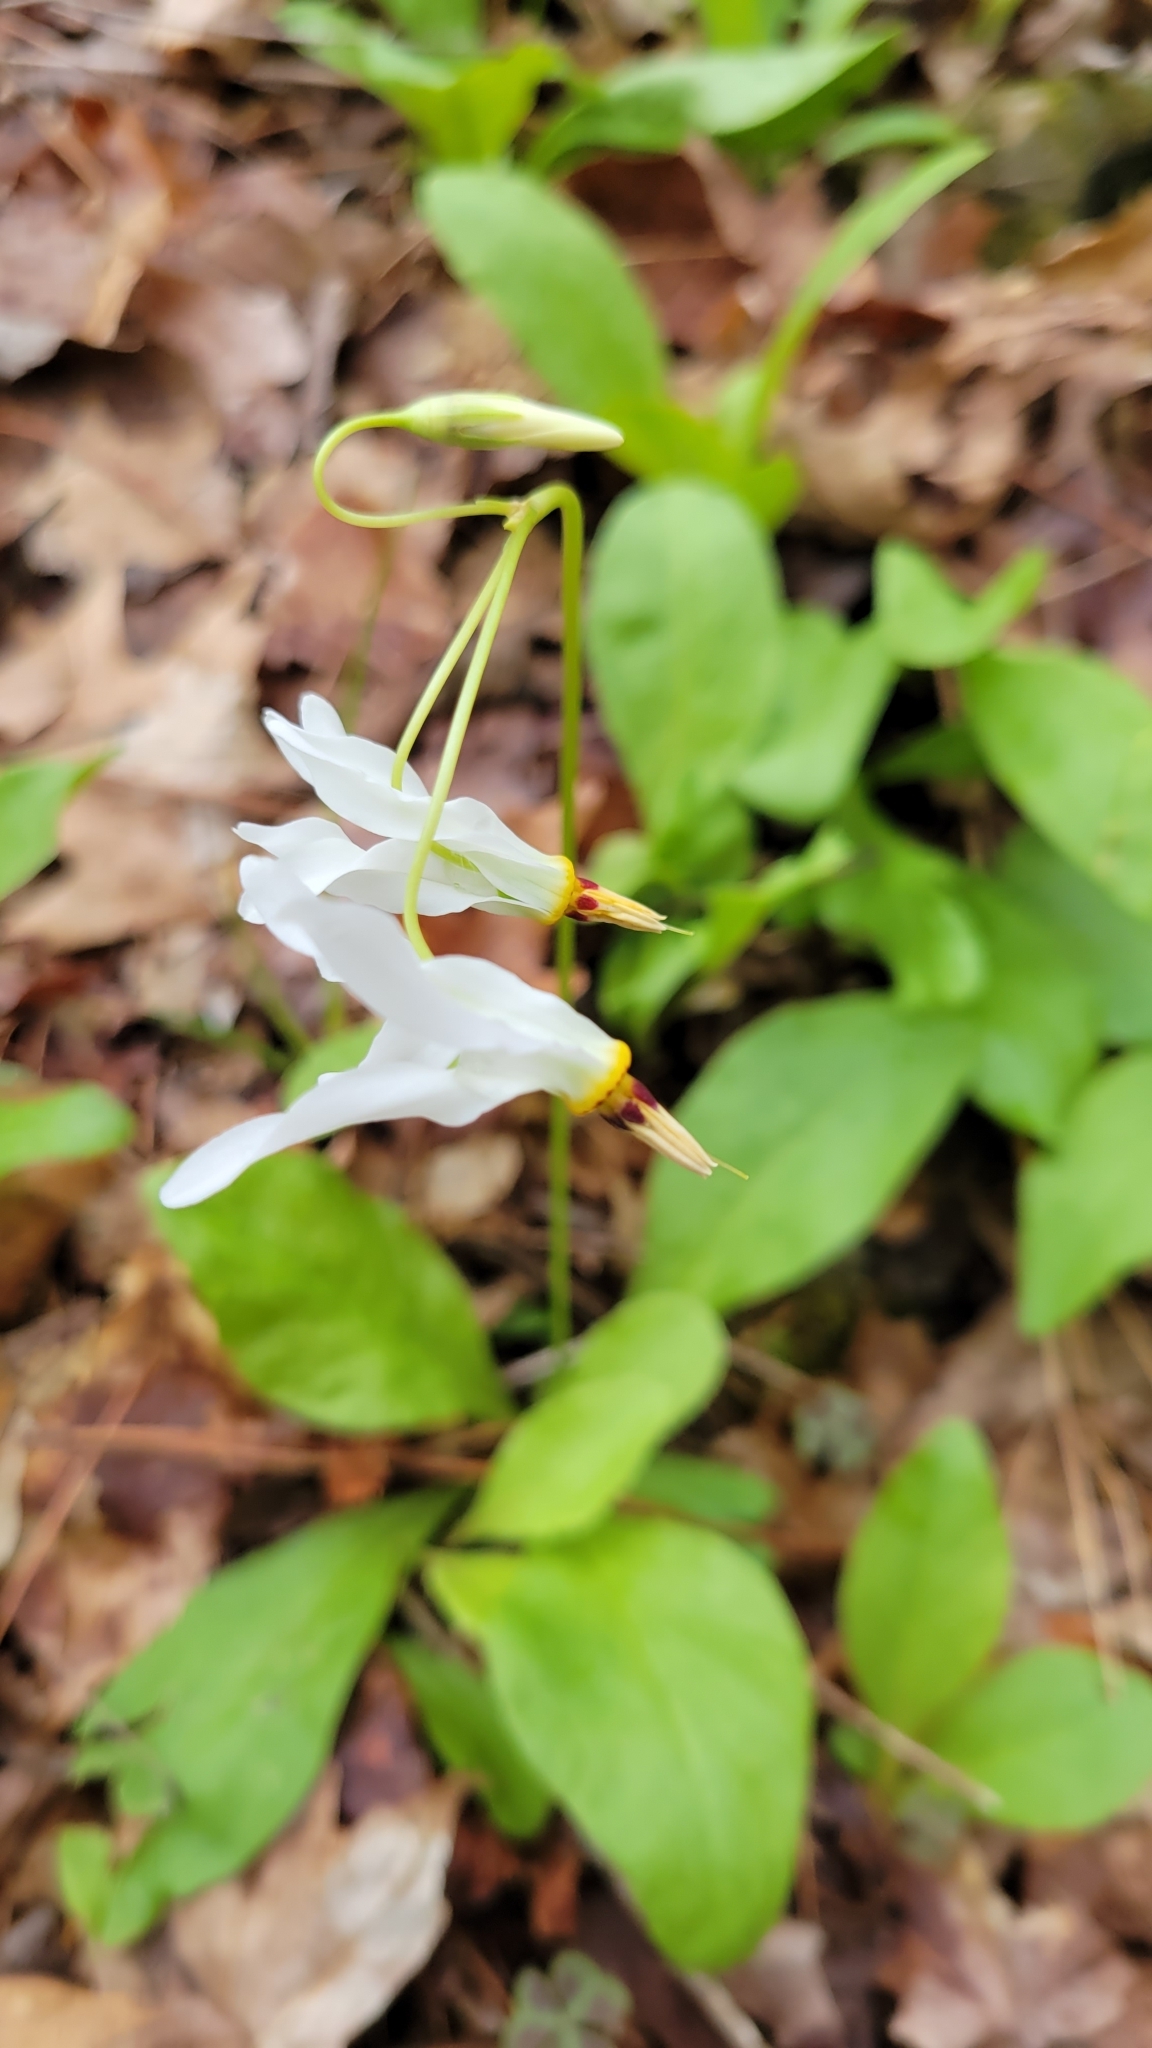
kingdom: Plantae
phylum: Tracheophyta
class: Magnoliopsida
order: Ericales
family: Primulaceae
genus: Dodecatheon
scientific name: Dodecatheon meadia
